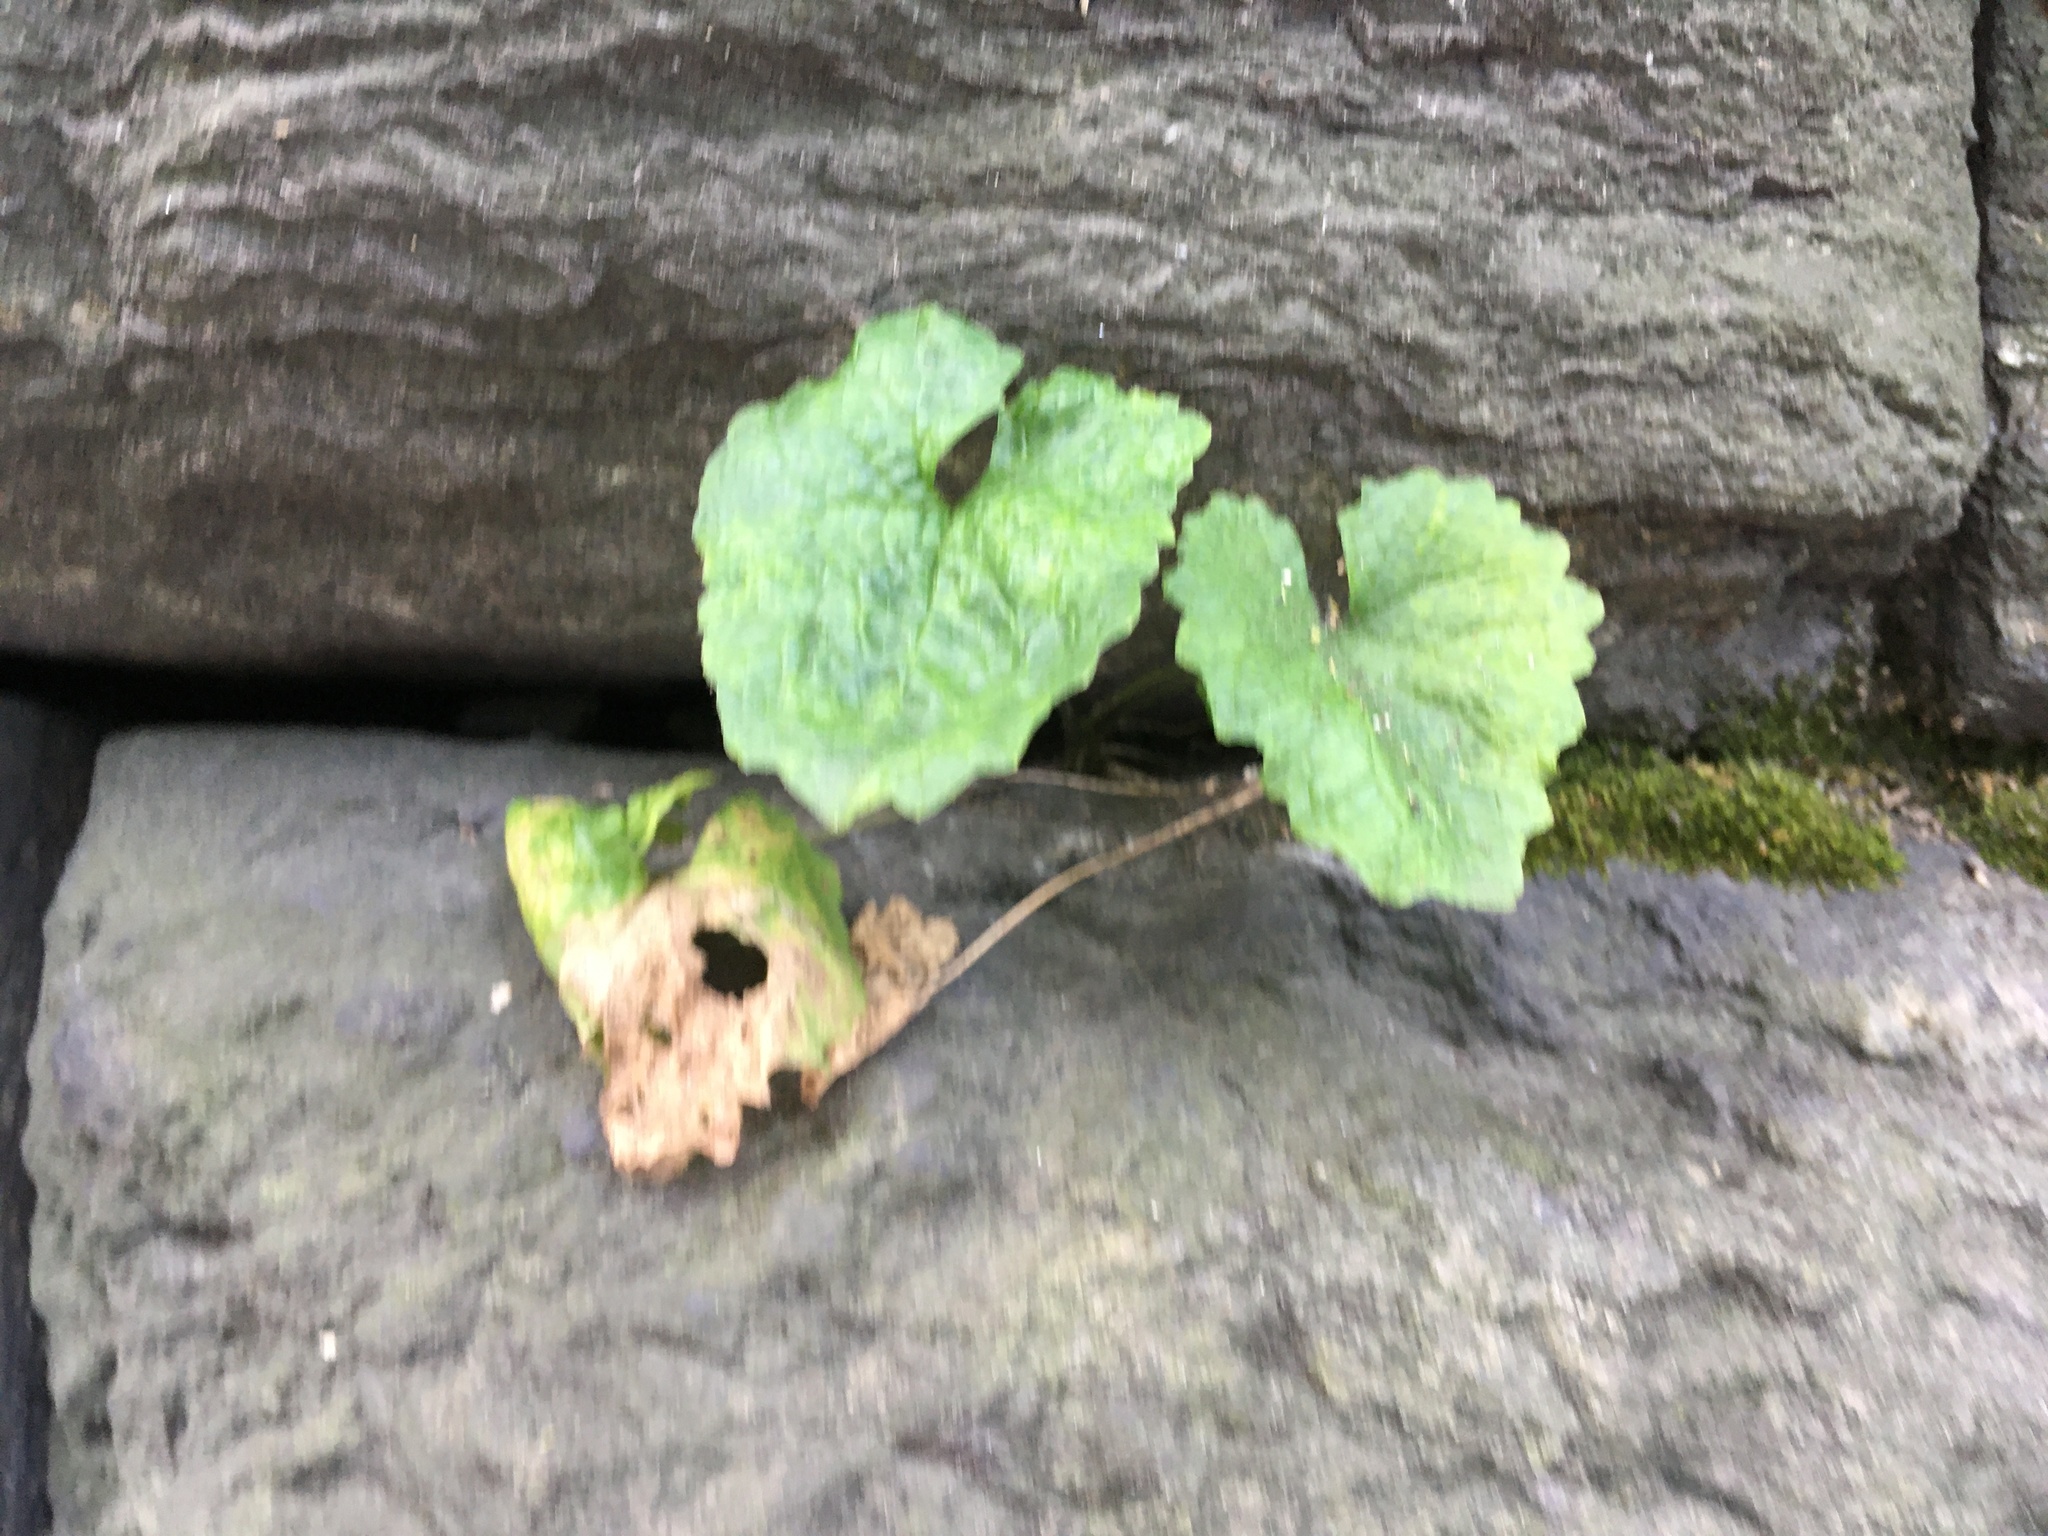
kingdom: Plantae
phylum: Tracheophyta
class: Magnoliopsida
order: Brassicales
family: Brassicaceae
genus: Alliaria
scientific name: Alliaria petiolata
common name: Garlic mustard
